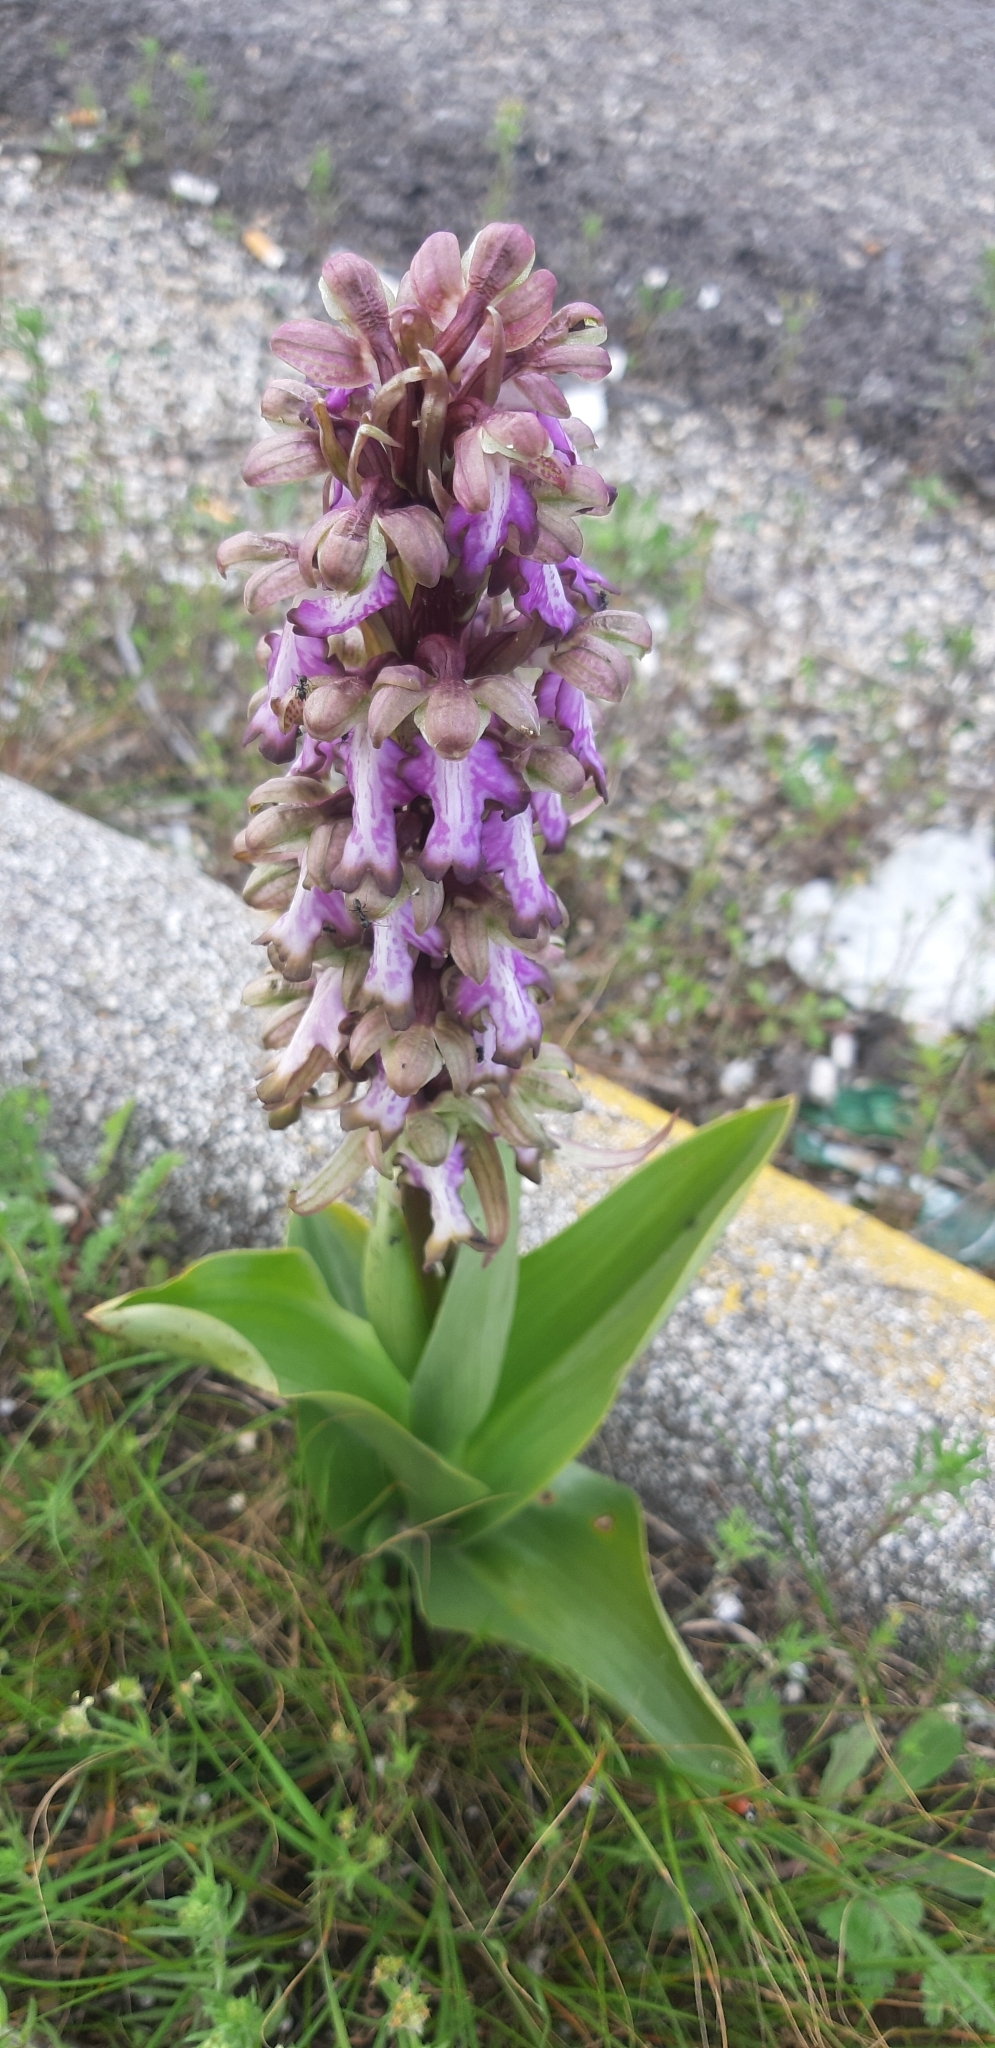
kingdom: Plantae
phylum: Tracheophyta
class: Liliopsida
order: Asparagales
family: Orchidaceae
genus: Himantoglossum
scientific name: Himantoglossum robertianum
